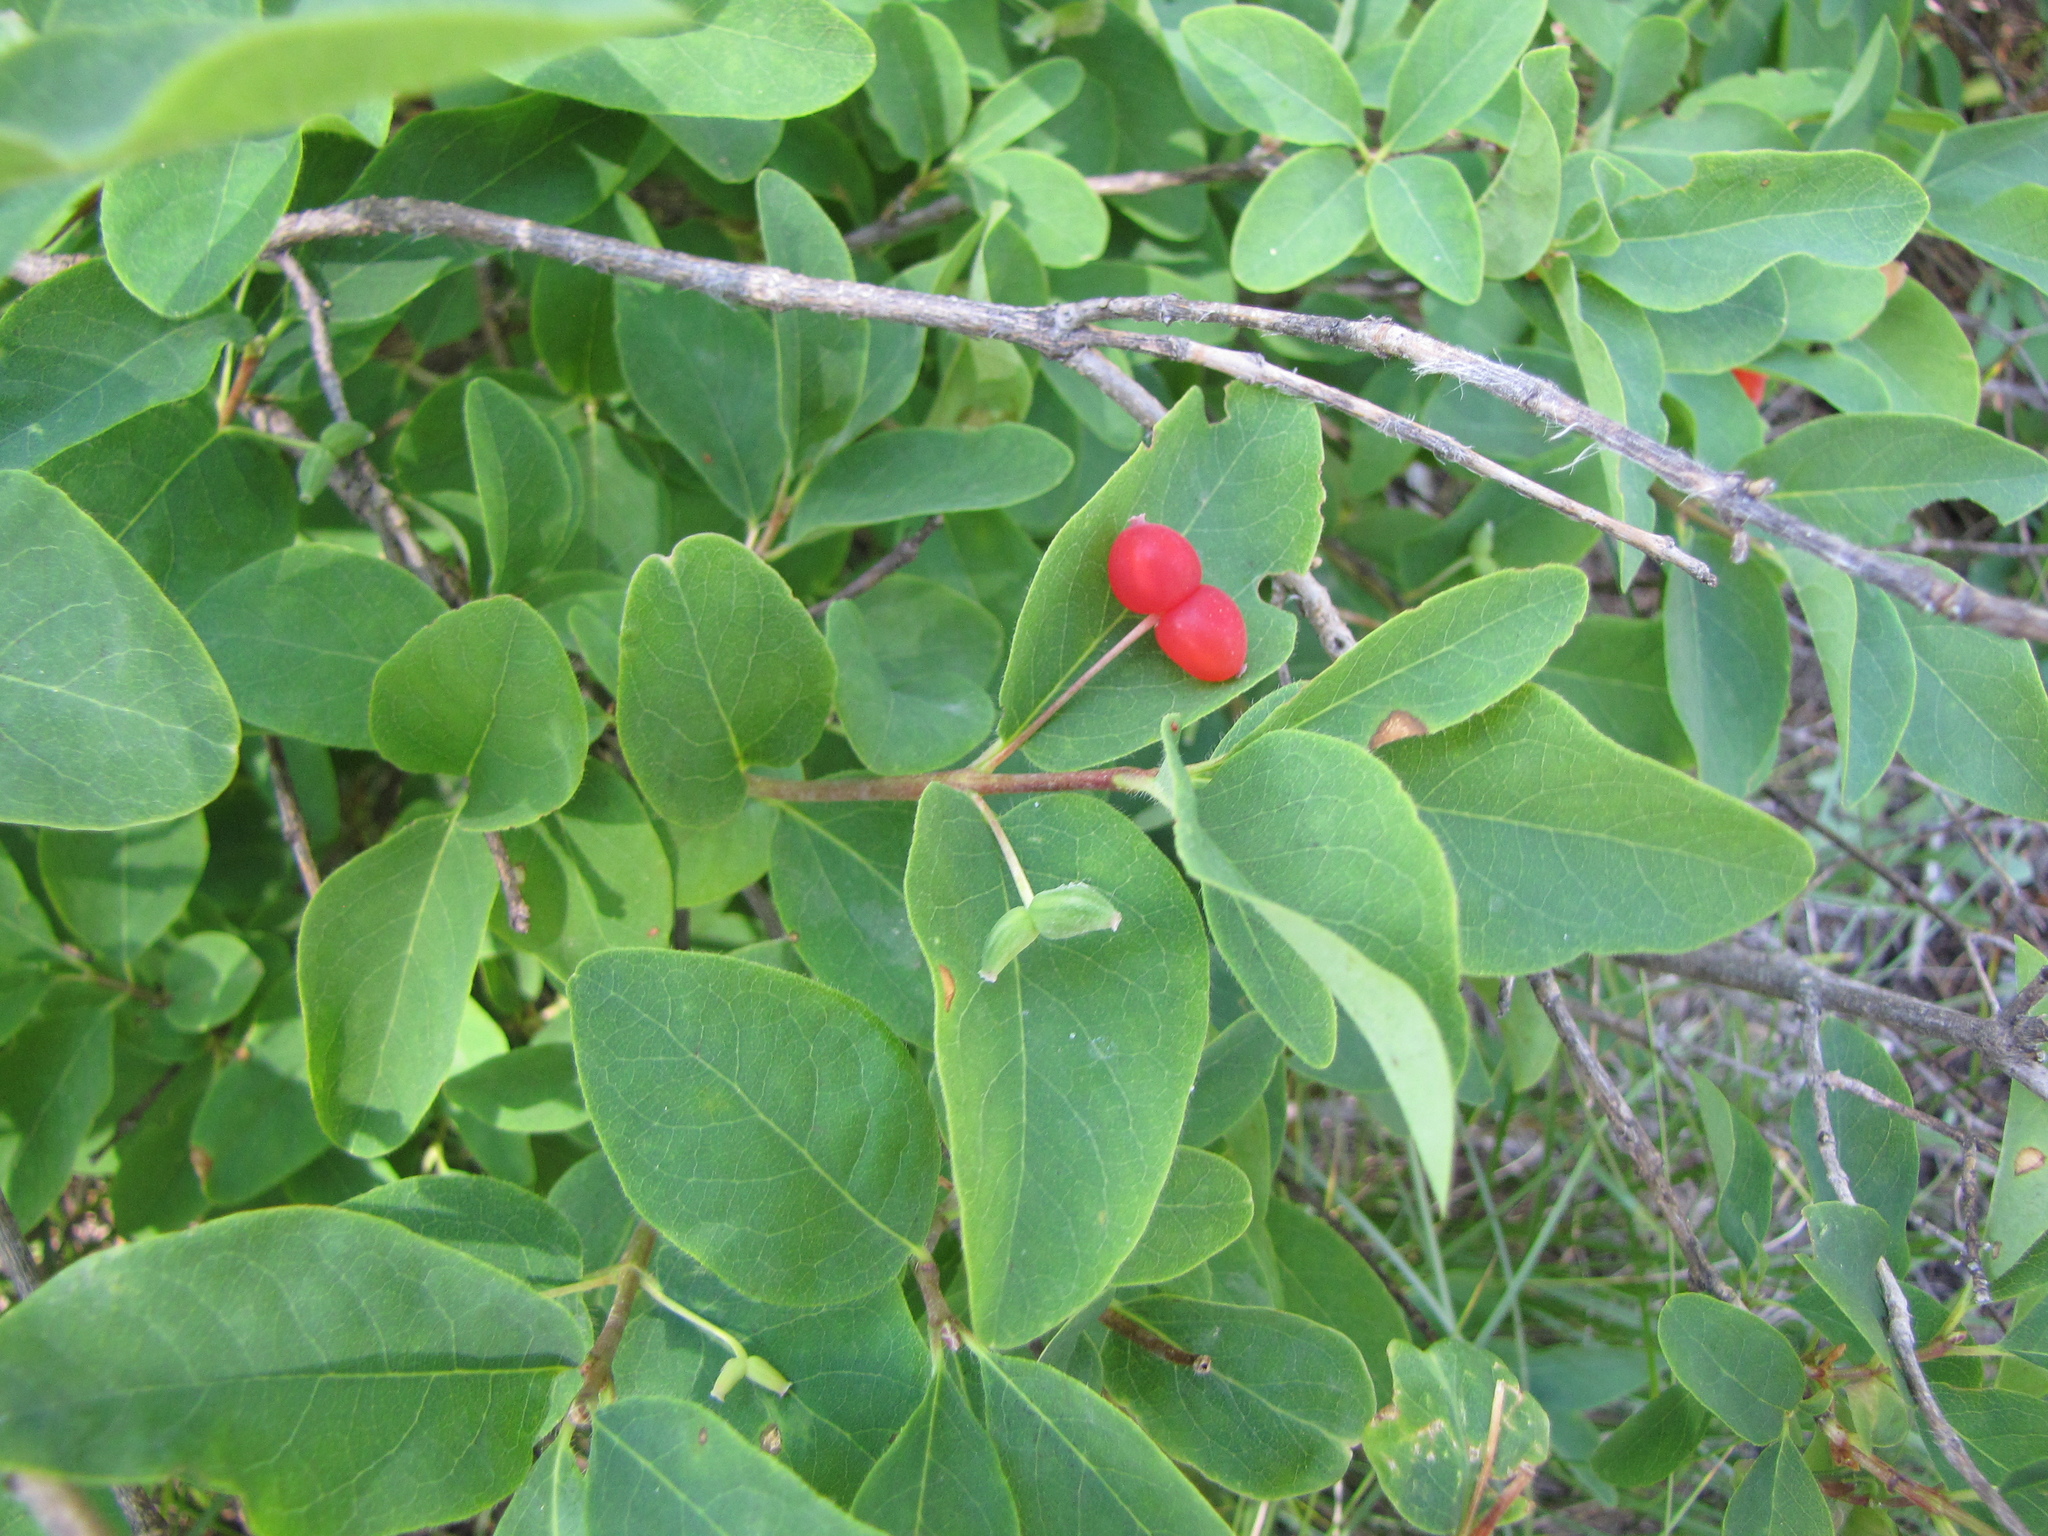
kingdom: Plantae
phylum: Tracheophyta
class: Magnoliopsida
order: Dipsacales
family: Caprifoliaceae
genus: Lonicera
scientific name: Lonicera utahensis
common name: Utah honeysuckle
